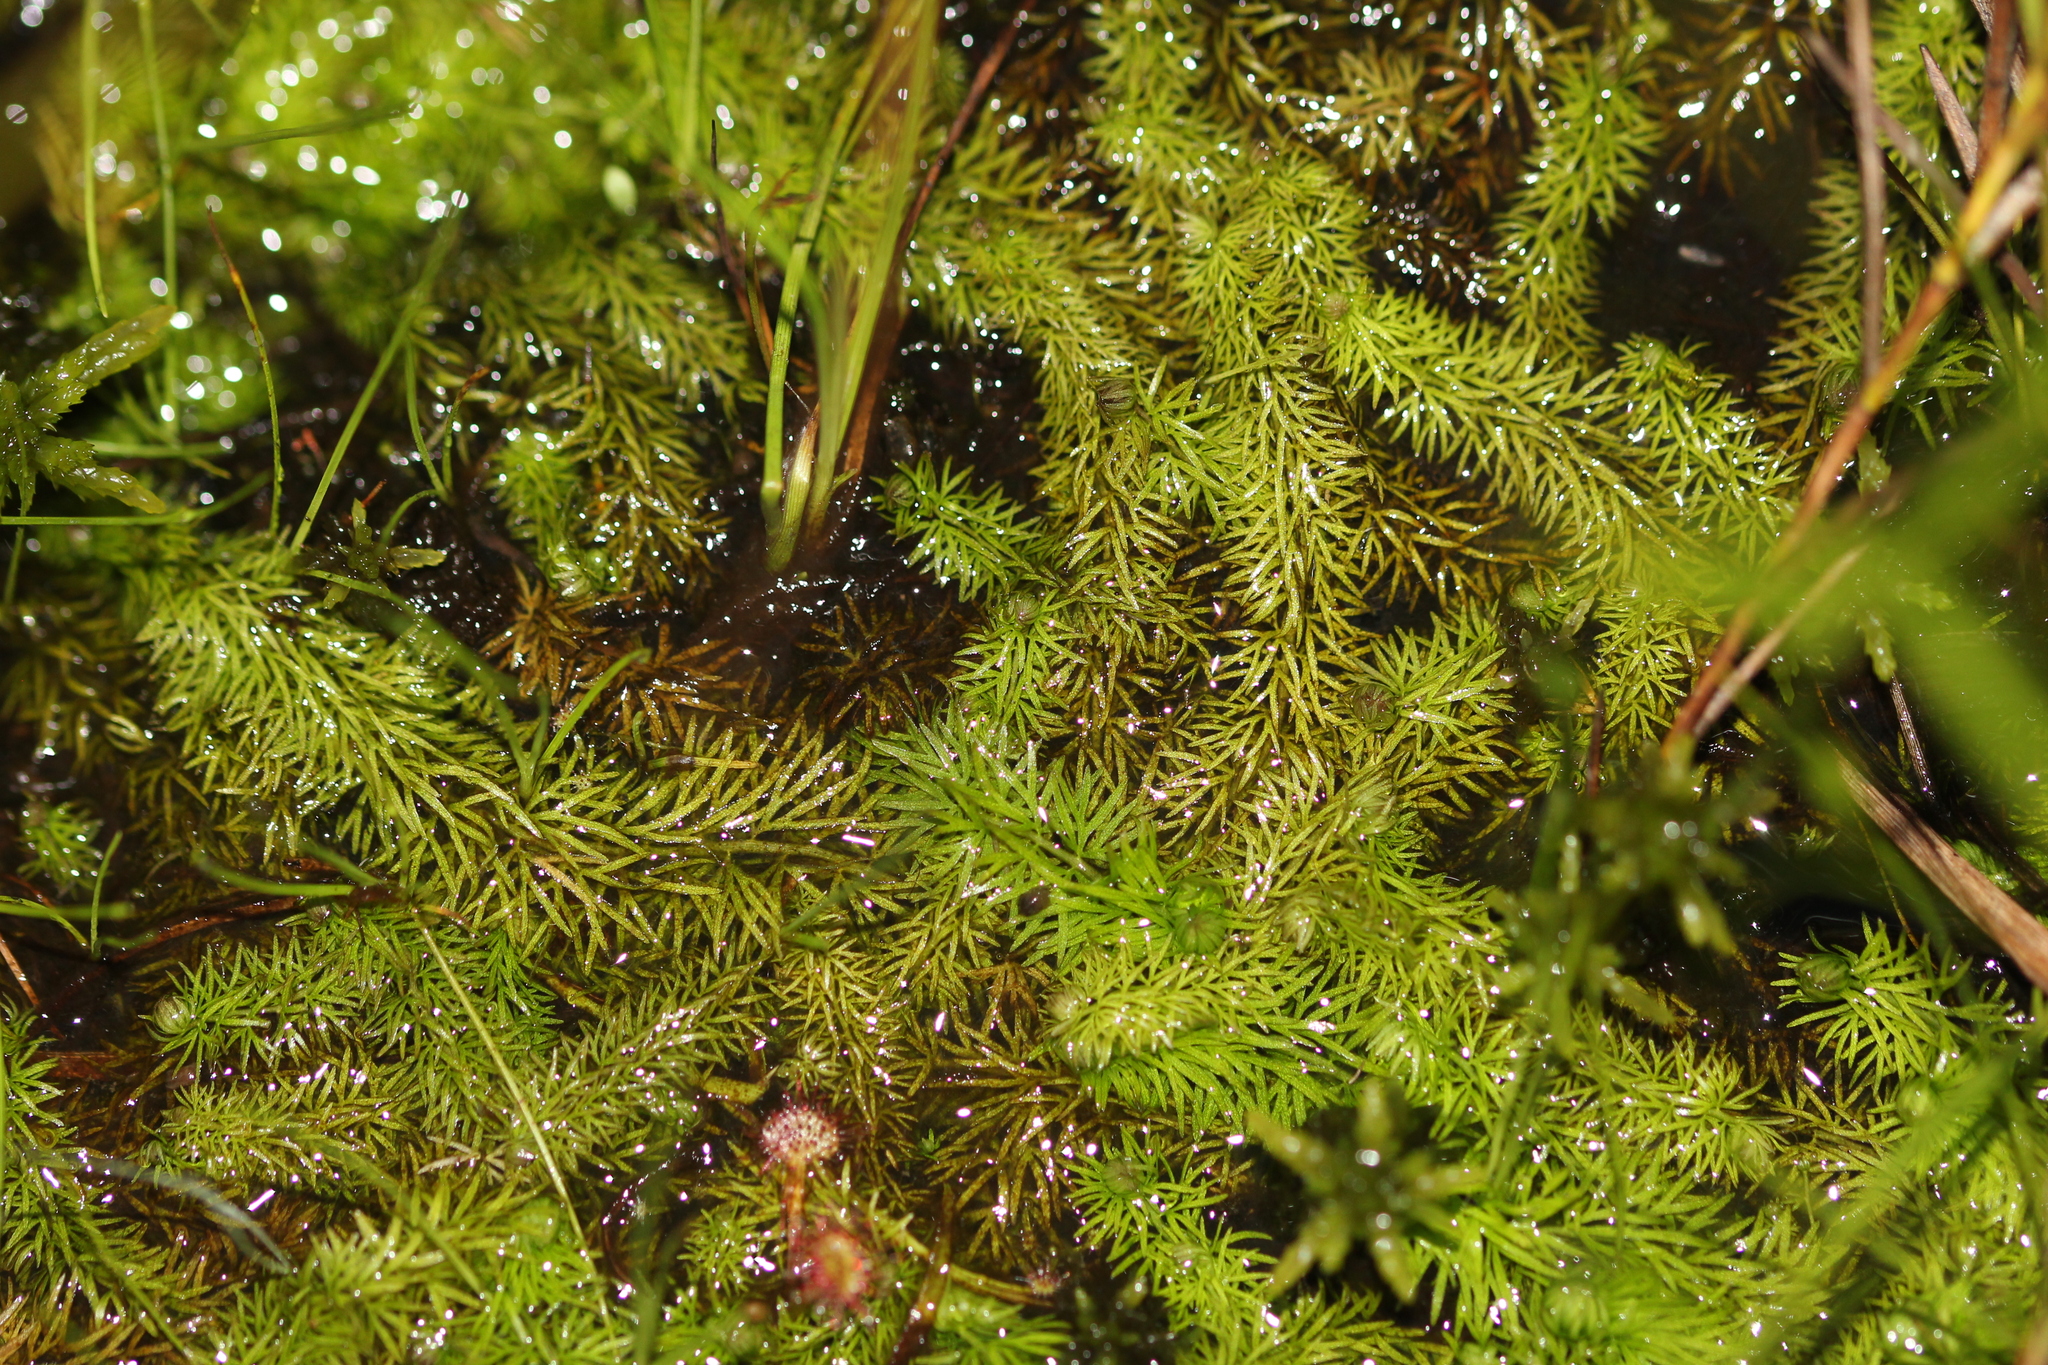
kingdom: Plantae
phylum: Tracheophyta
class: Magnoliopsida
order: Lamiales
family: Lentibulariaceae
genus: Utricularia
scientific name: Utricularia intermedia
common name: Intermediate bladderwort
